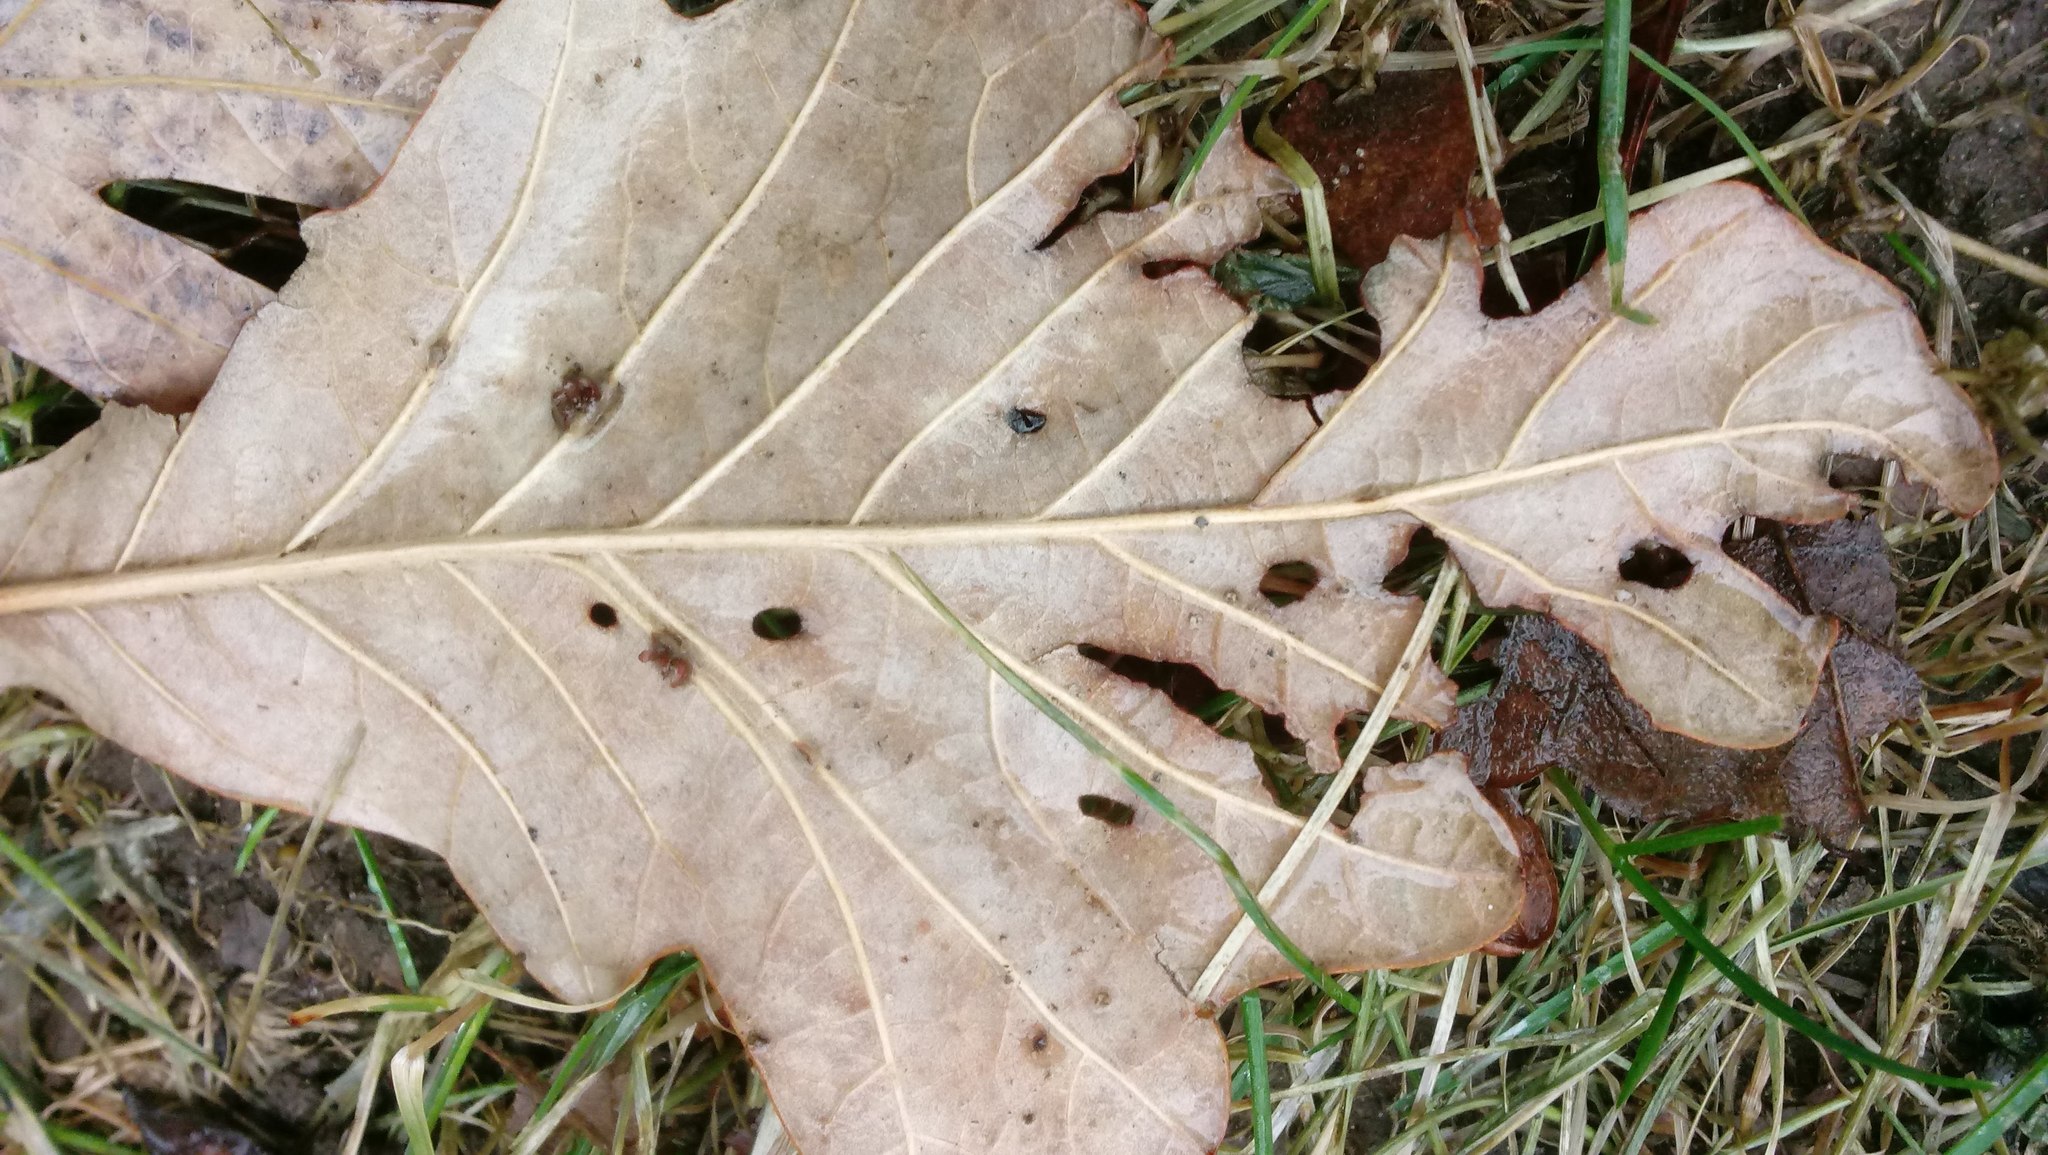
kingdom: Animalia
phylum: Arthropoda
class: Insecta
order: Hymenoptera
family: Cynipidae
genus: Andricus
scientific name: Andricus Druon ignotum
